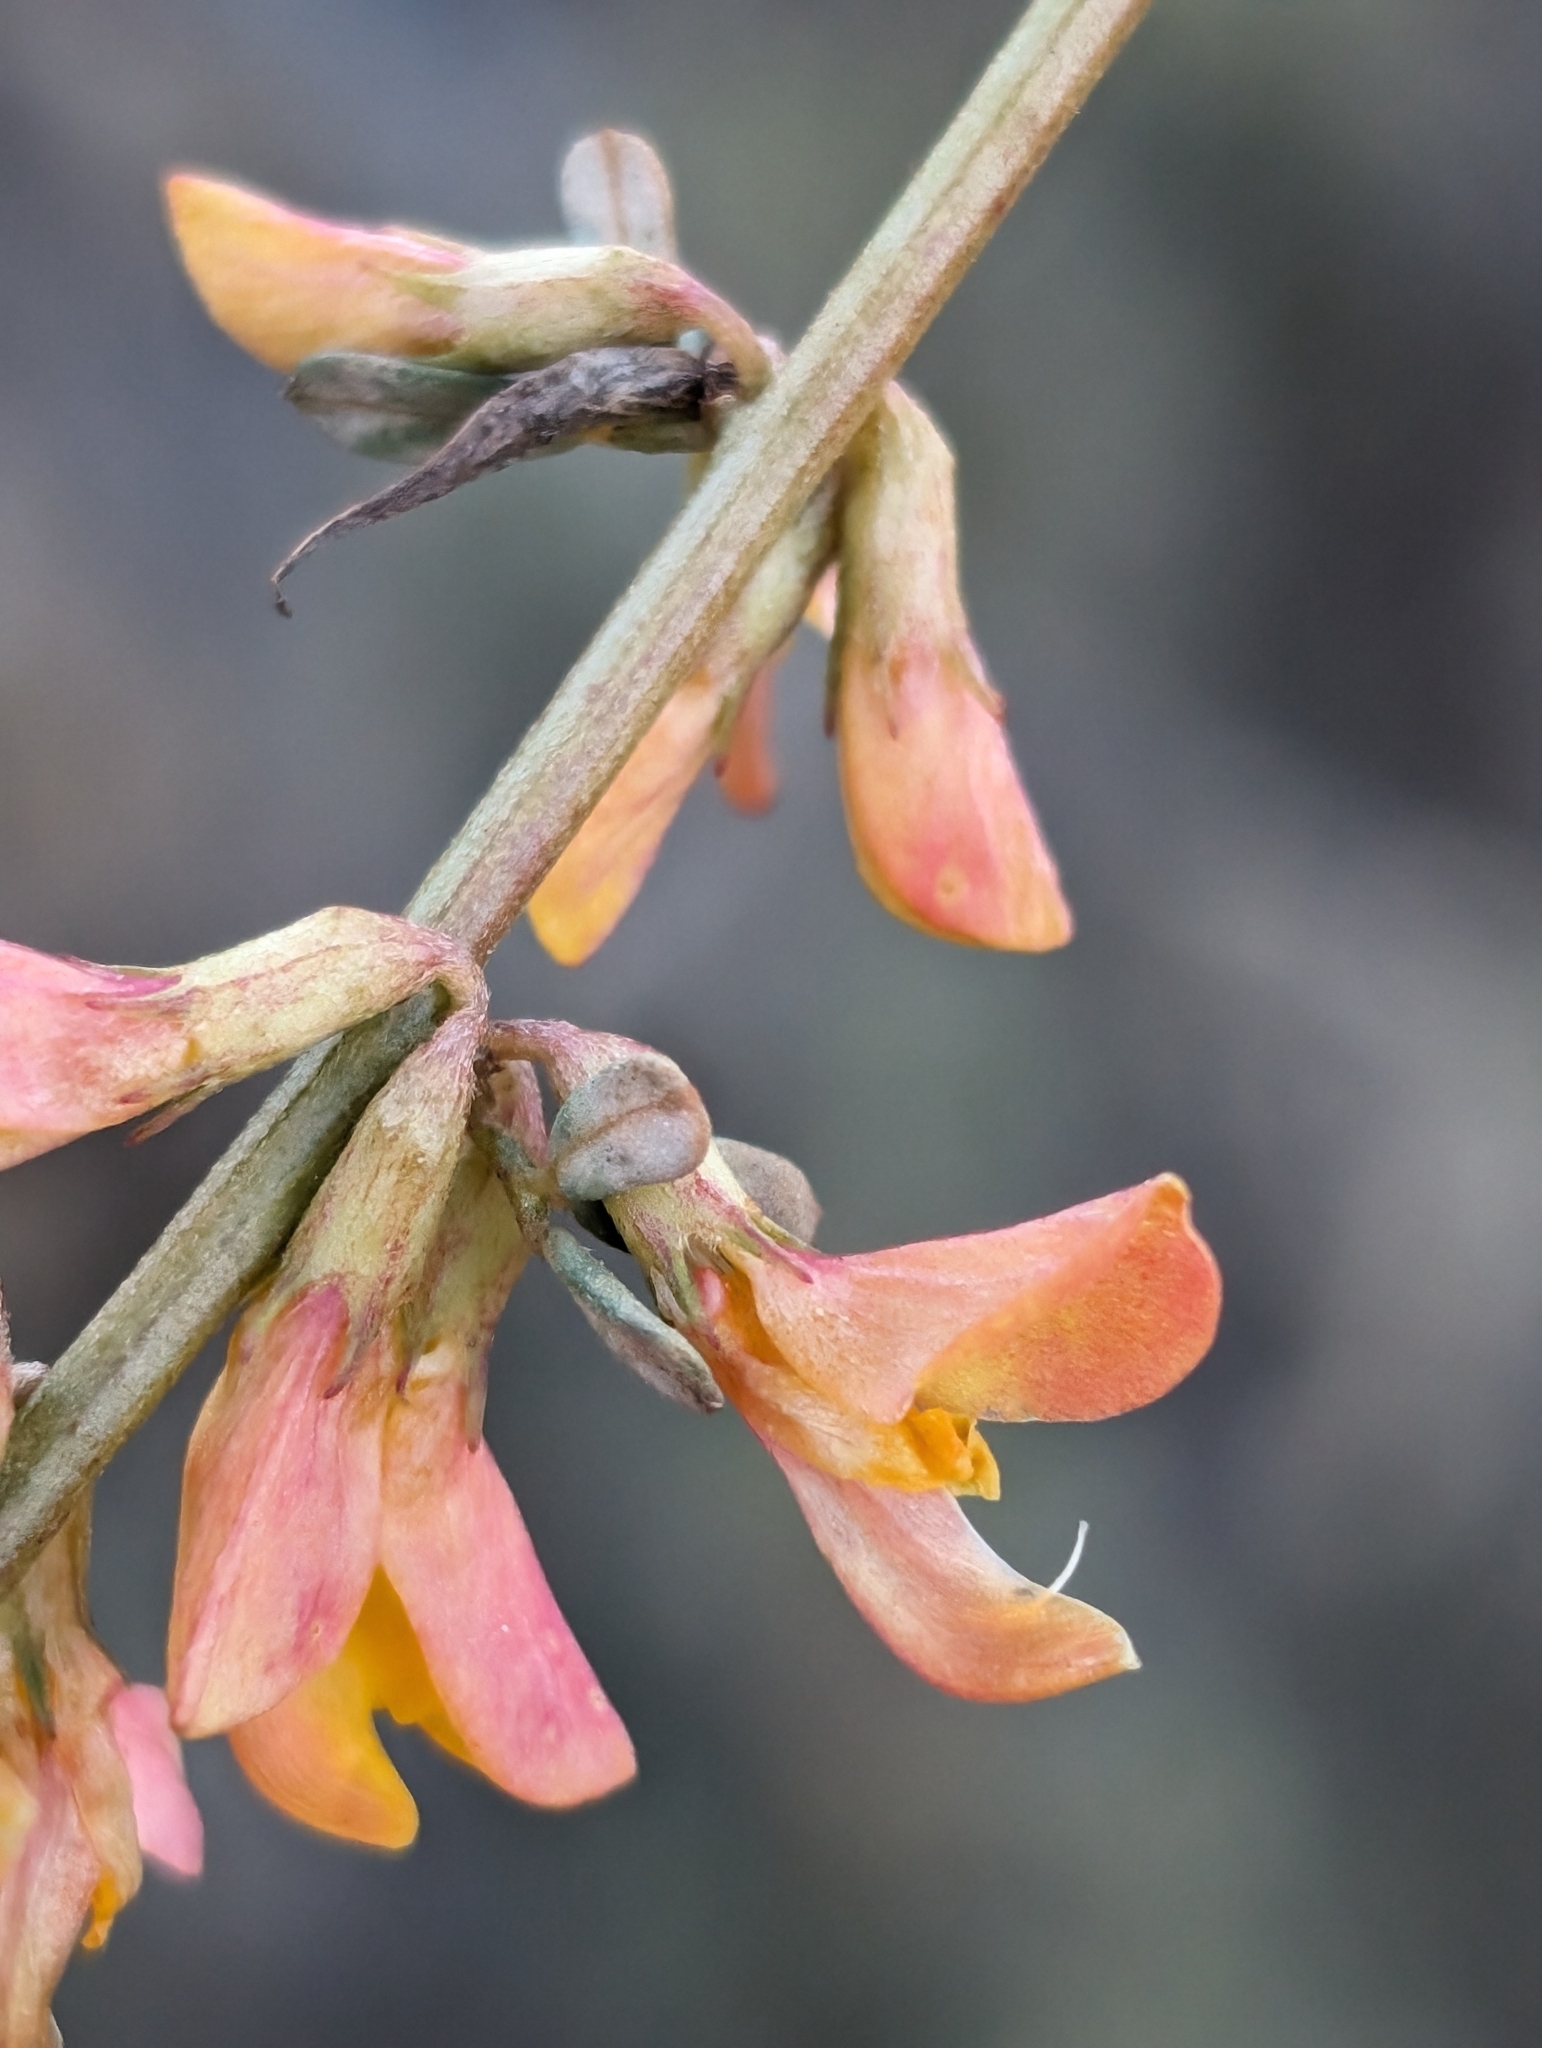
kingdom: Plantae
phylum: Tracheophyta
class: Magnoliopsida
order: Fabales
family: Fabaceae
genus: Acmispon
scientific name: Acmispon glaber
